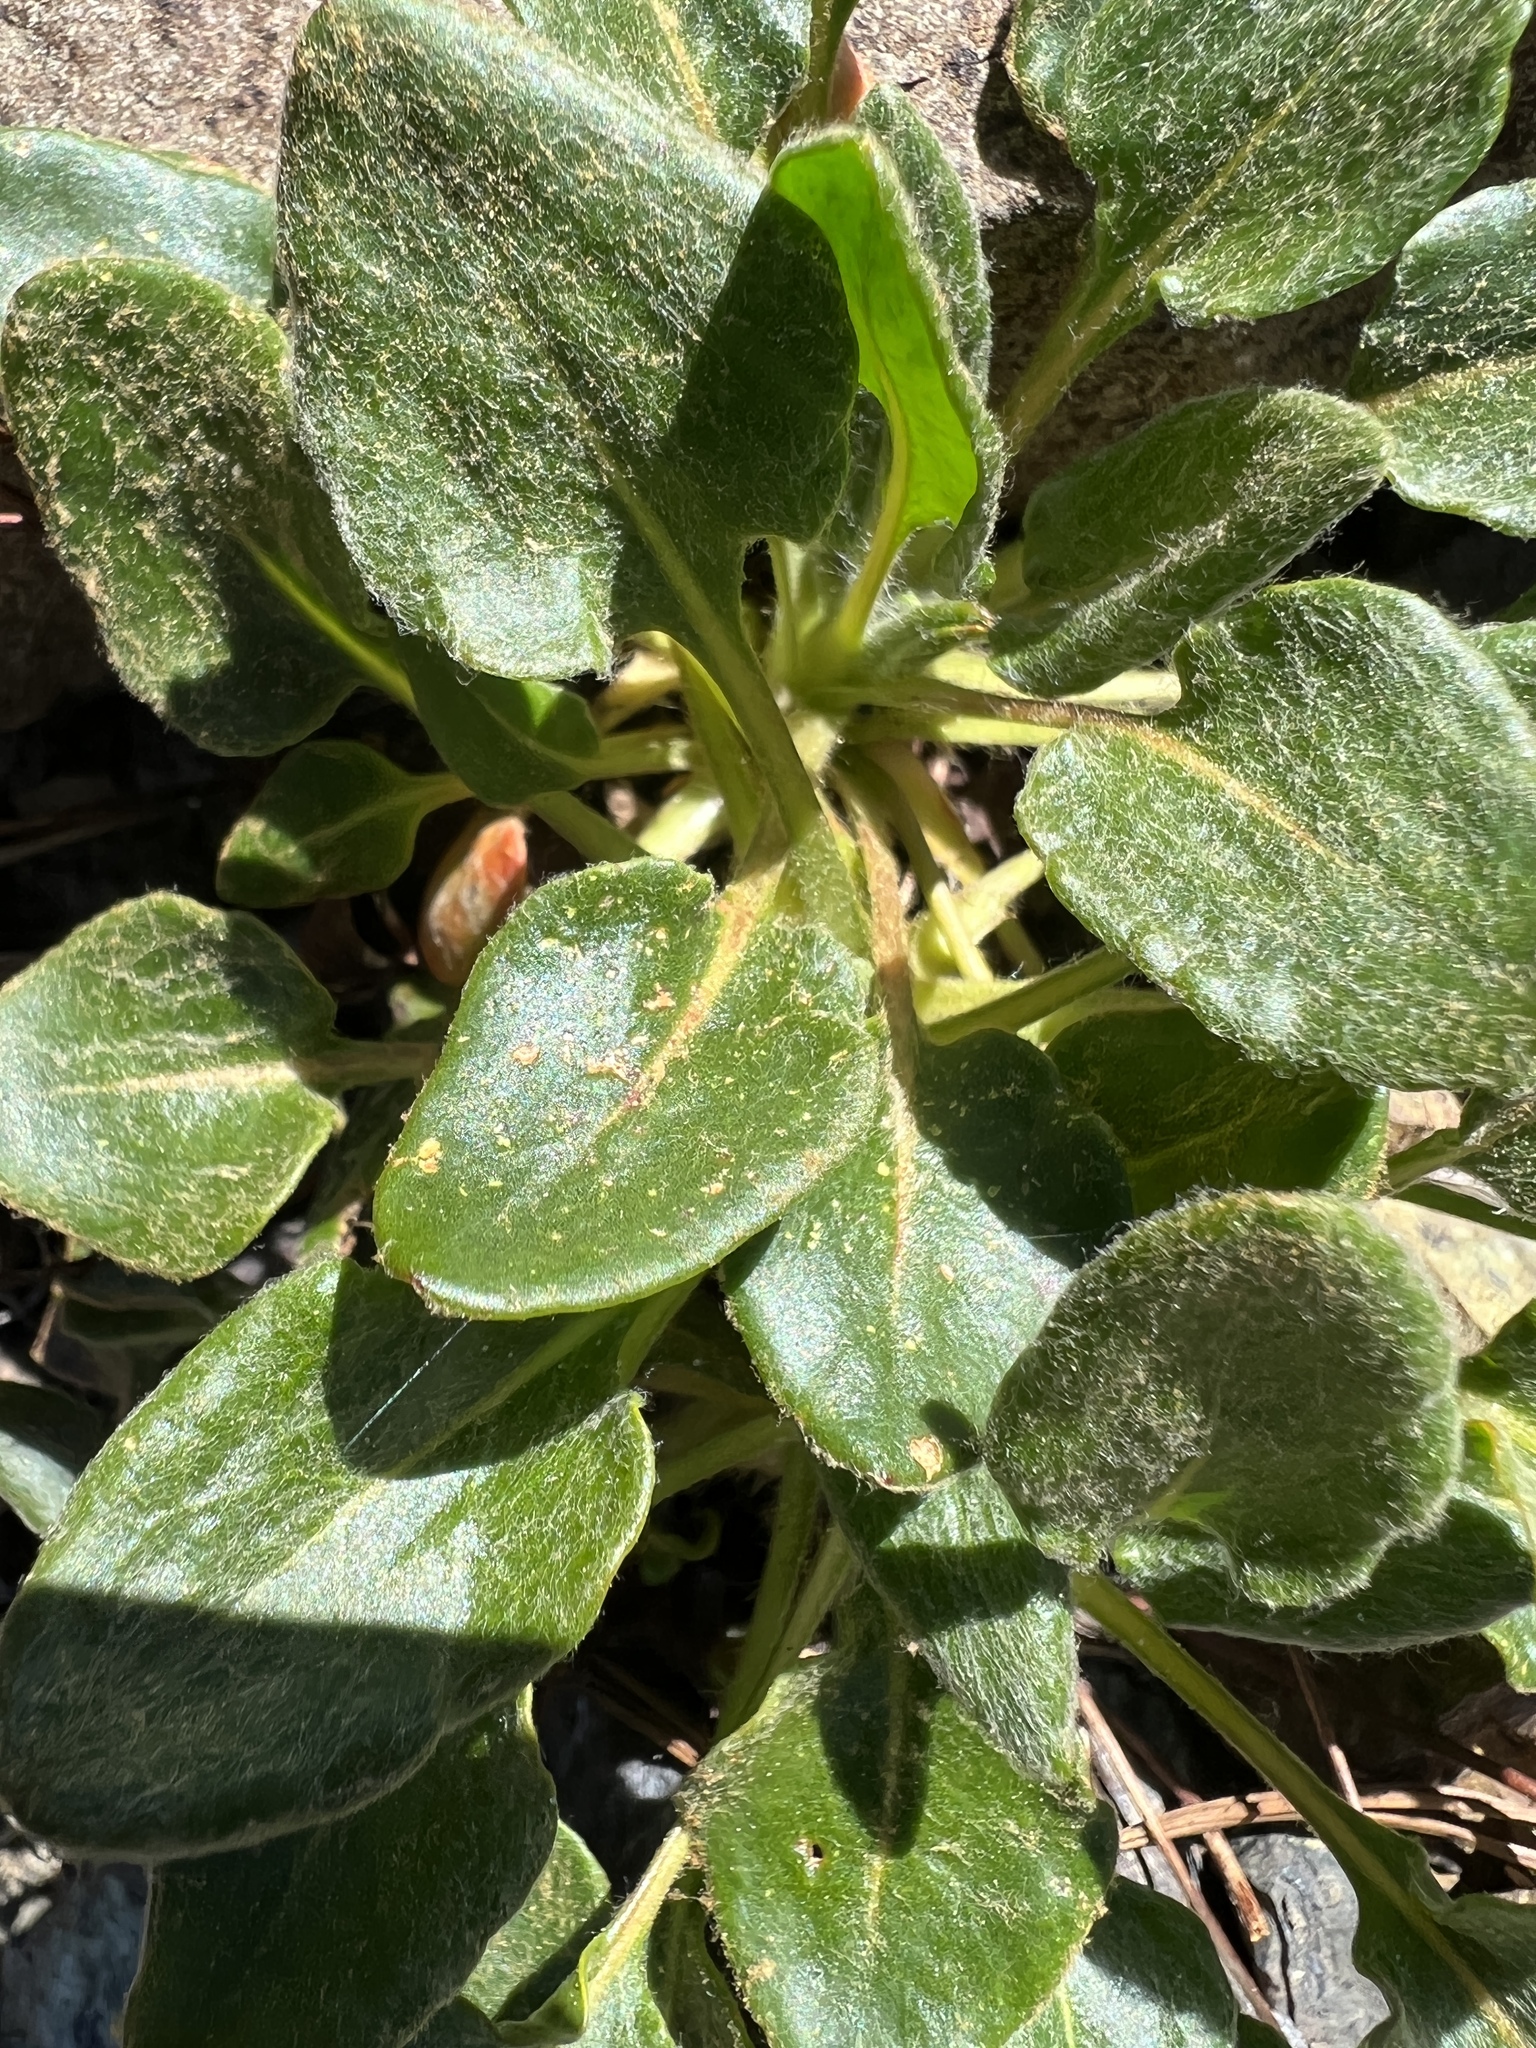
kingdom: Plantae
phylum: Tracheophyta
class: Magnoliopsida
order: Caryophyllales
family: Polygonaceae
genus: Eriogonum
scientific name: Eriogonum pyrolifolium
